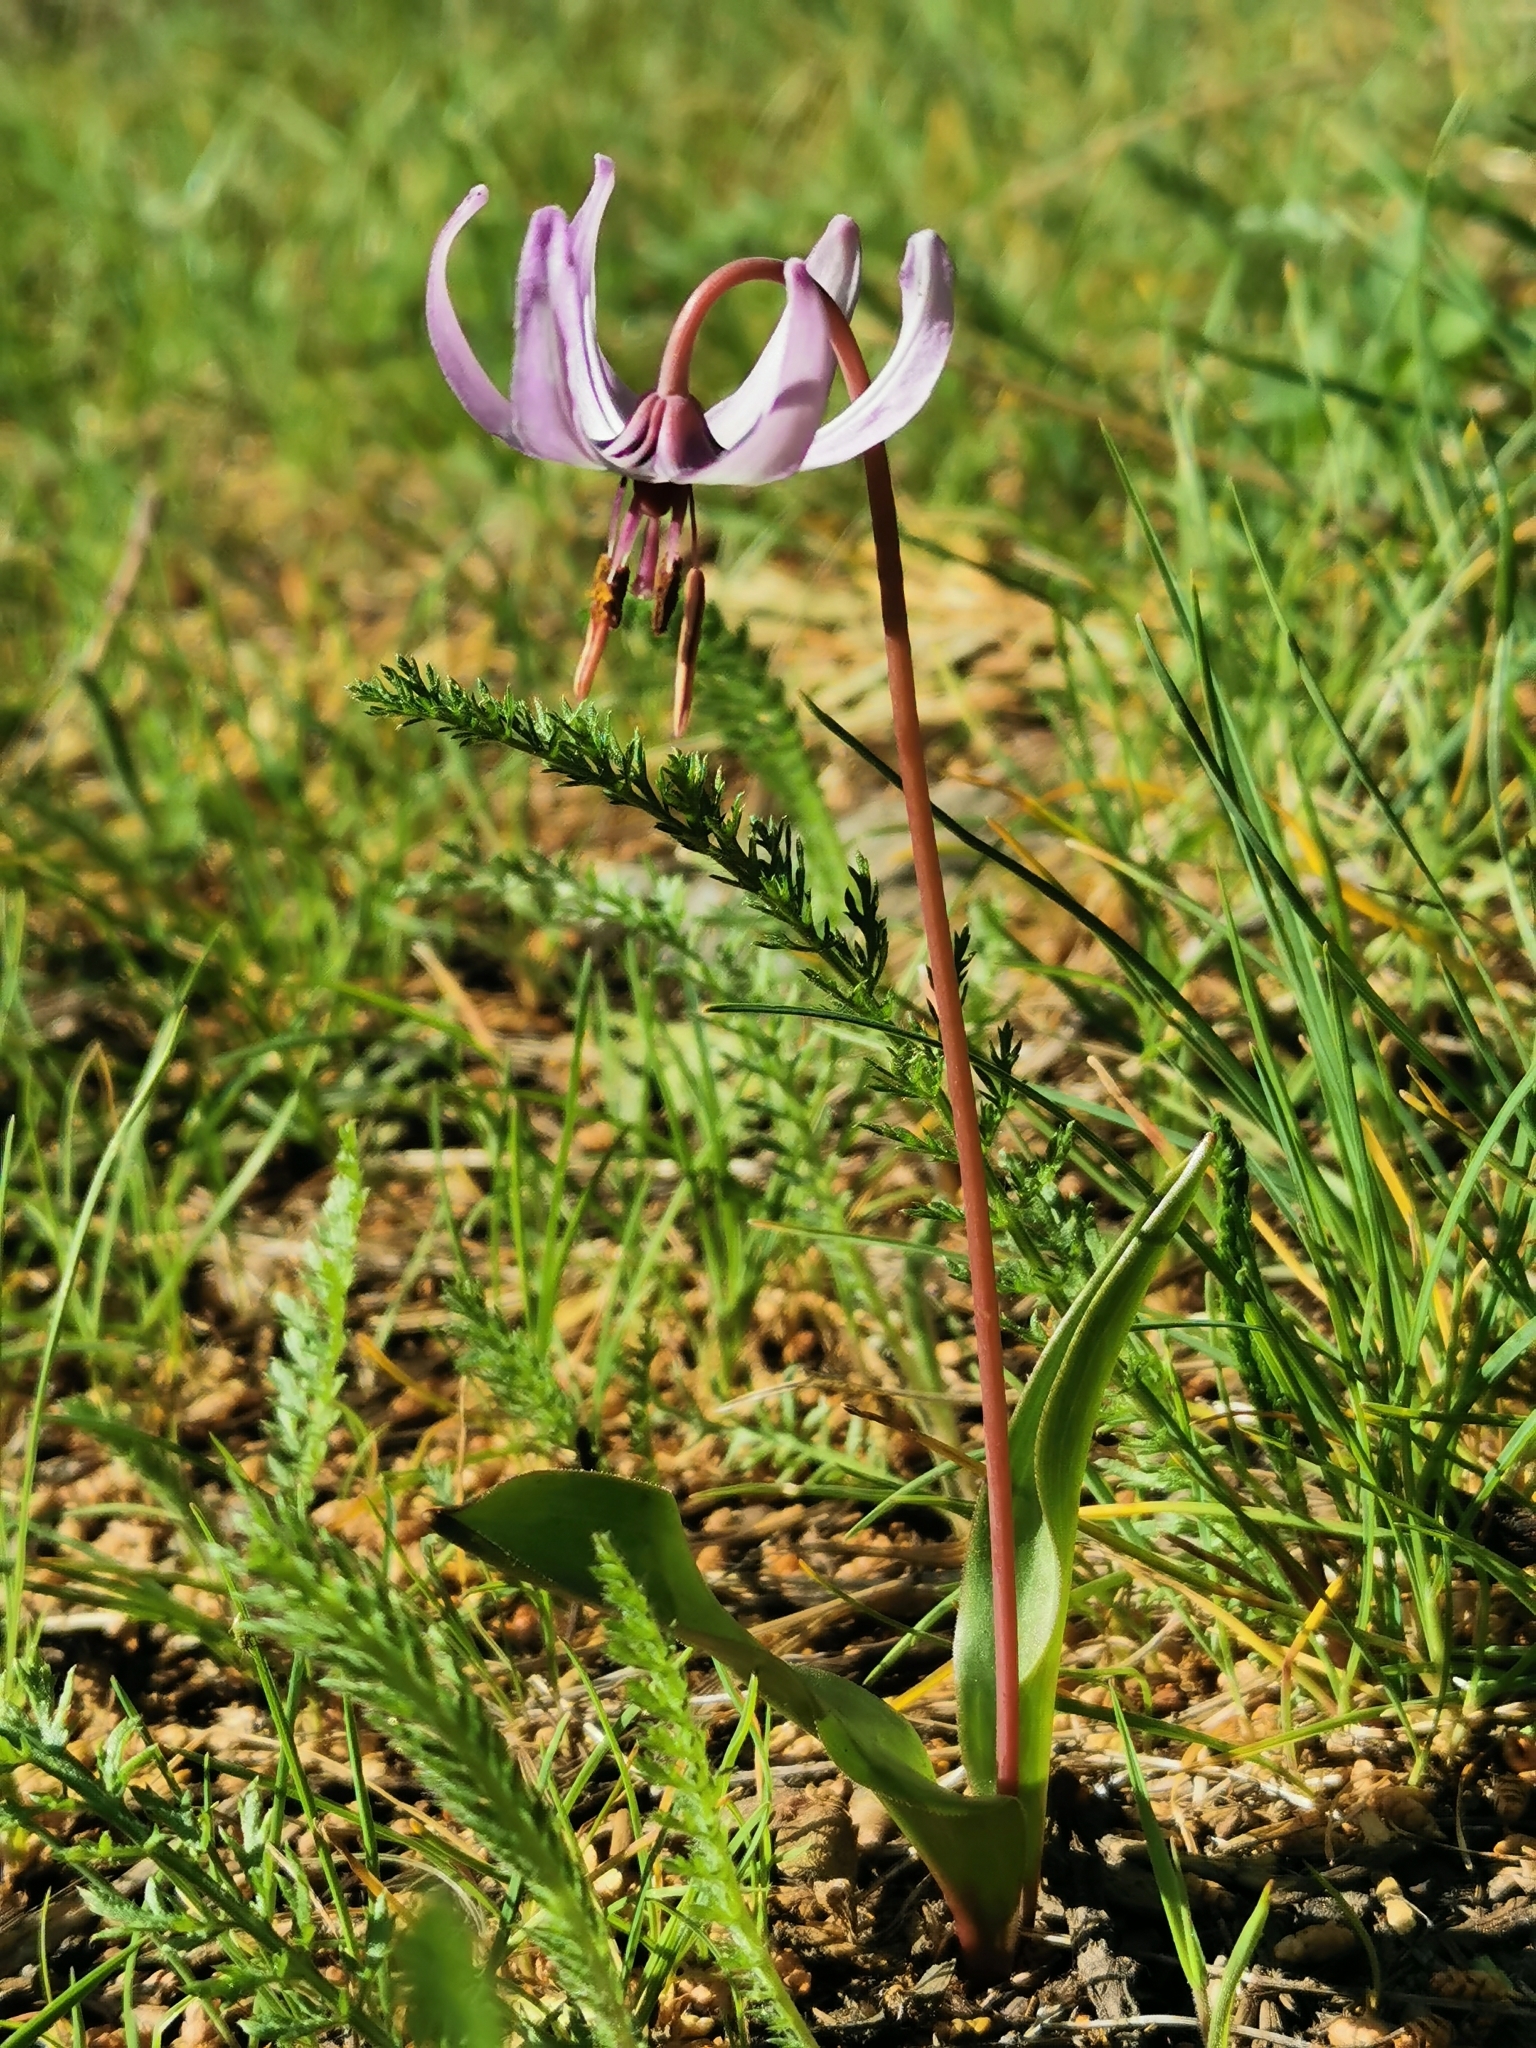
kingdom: Plantae
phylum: Tracheophyta
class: Liliopsida
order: Liliales
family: Liliaceae
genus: Erythronium
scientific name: Erythronium hendersonii
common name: Henderson's fawn-lily
